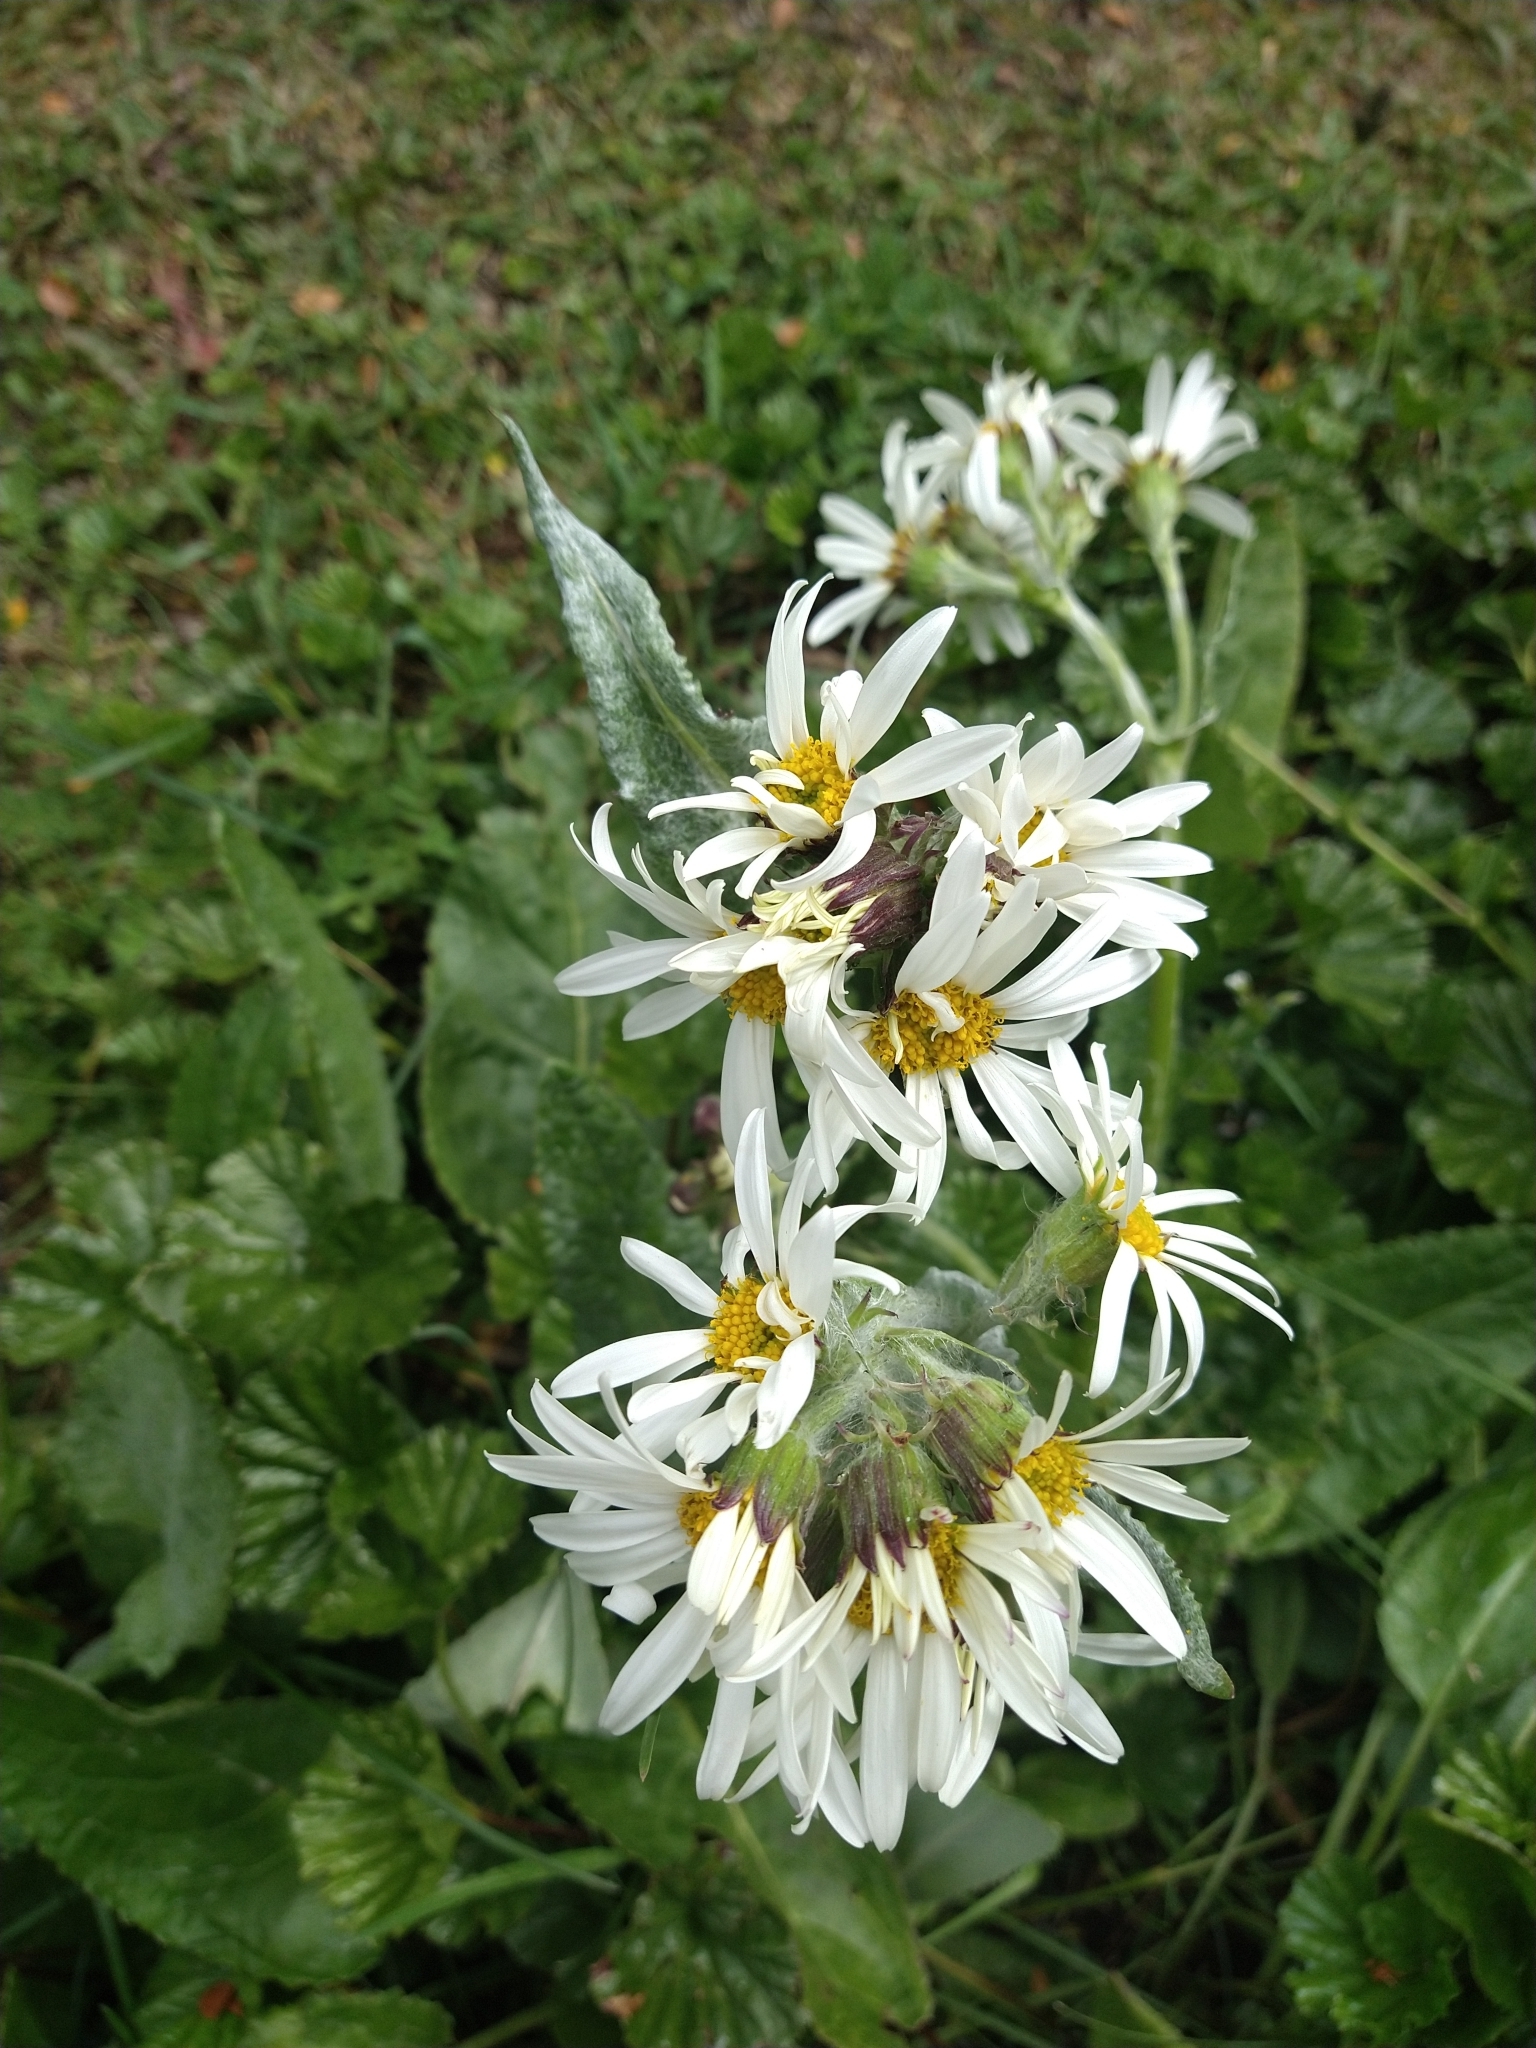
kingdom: Plantae
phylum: Tracheophyta
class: Magnoliopsida
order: Asterales
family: Asteraceae
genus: Senecio
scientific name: Senecio smithii
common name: Magellan ragwort
